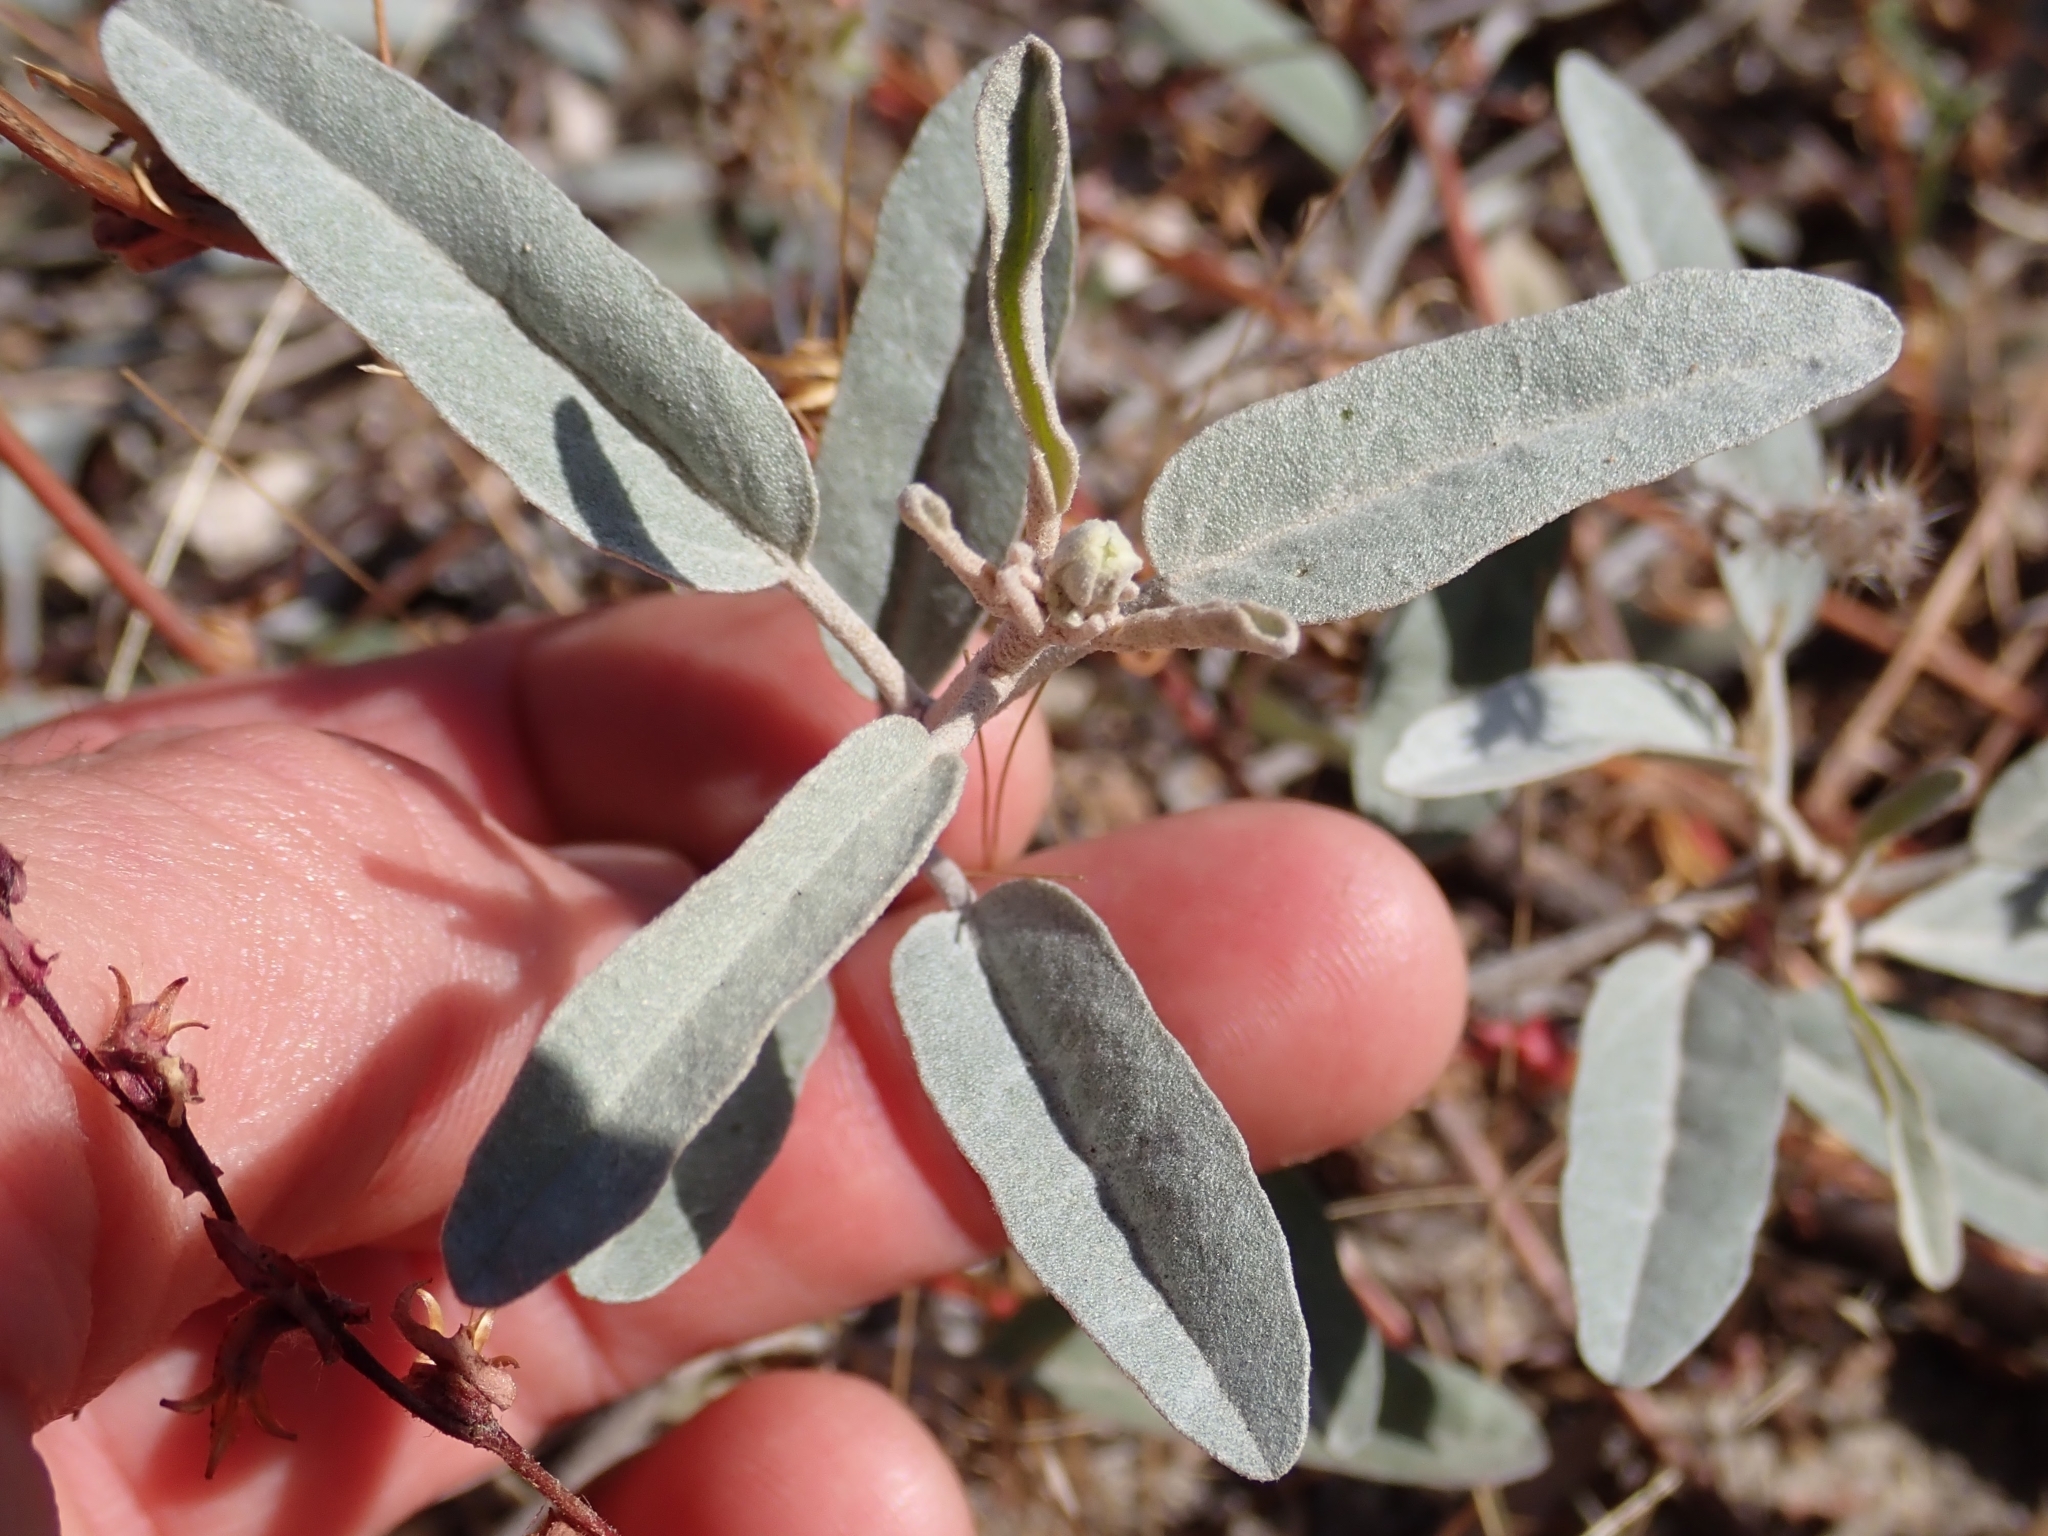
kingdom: Plantae
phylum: Tracheophyta
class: Magnoliopsida
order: Malpighiales
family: Euphorbiaceae
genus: Croton
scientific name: Croton californicus
